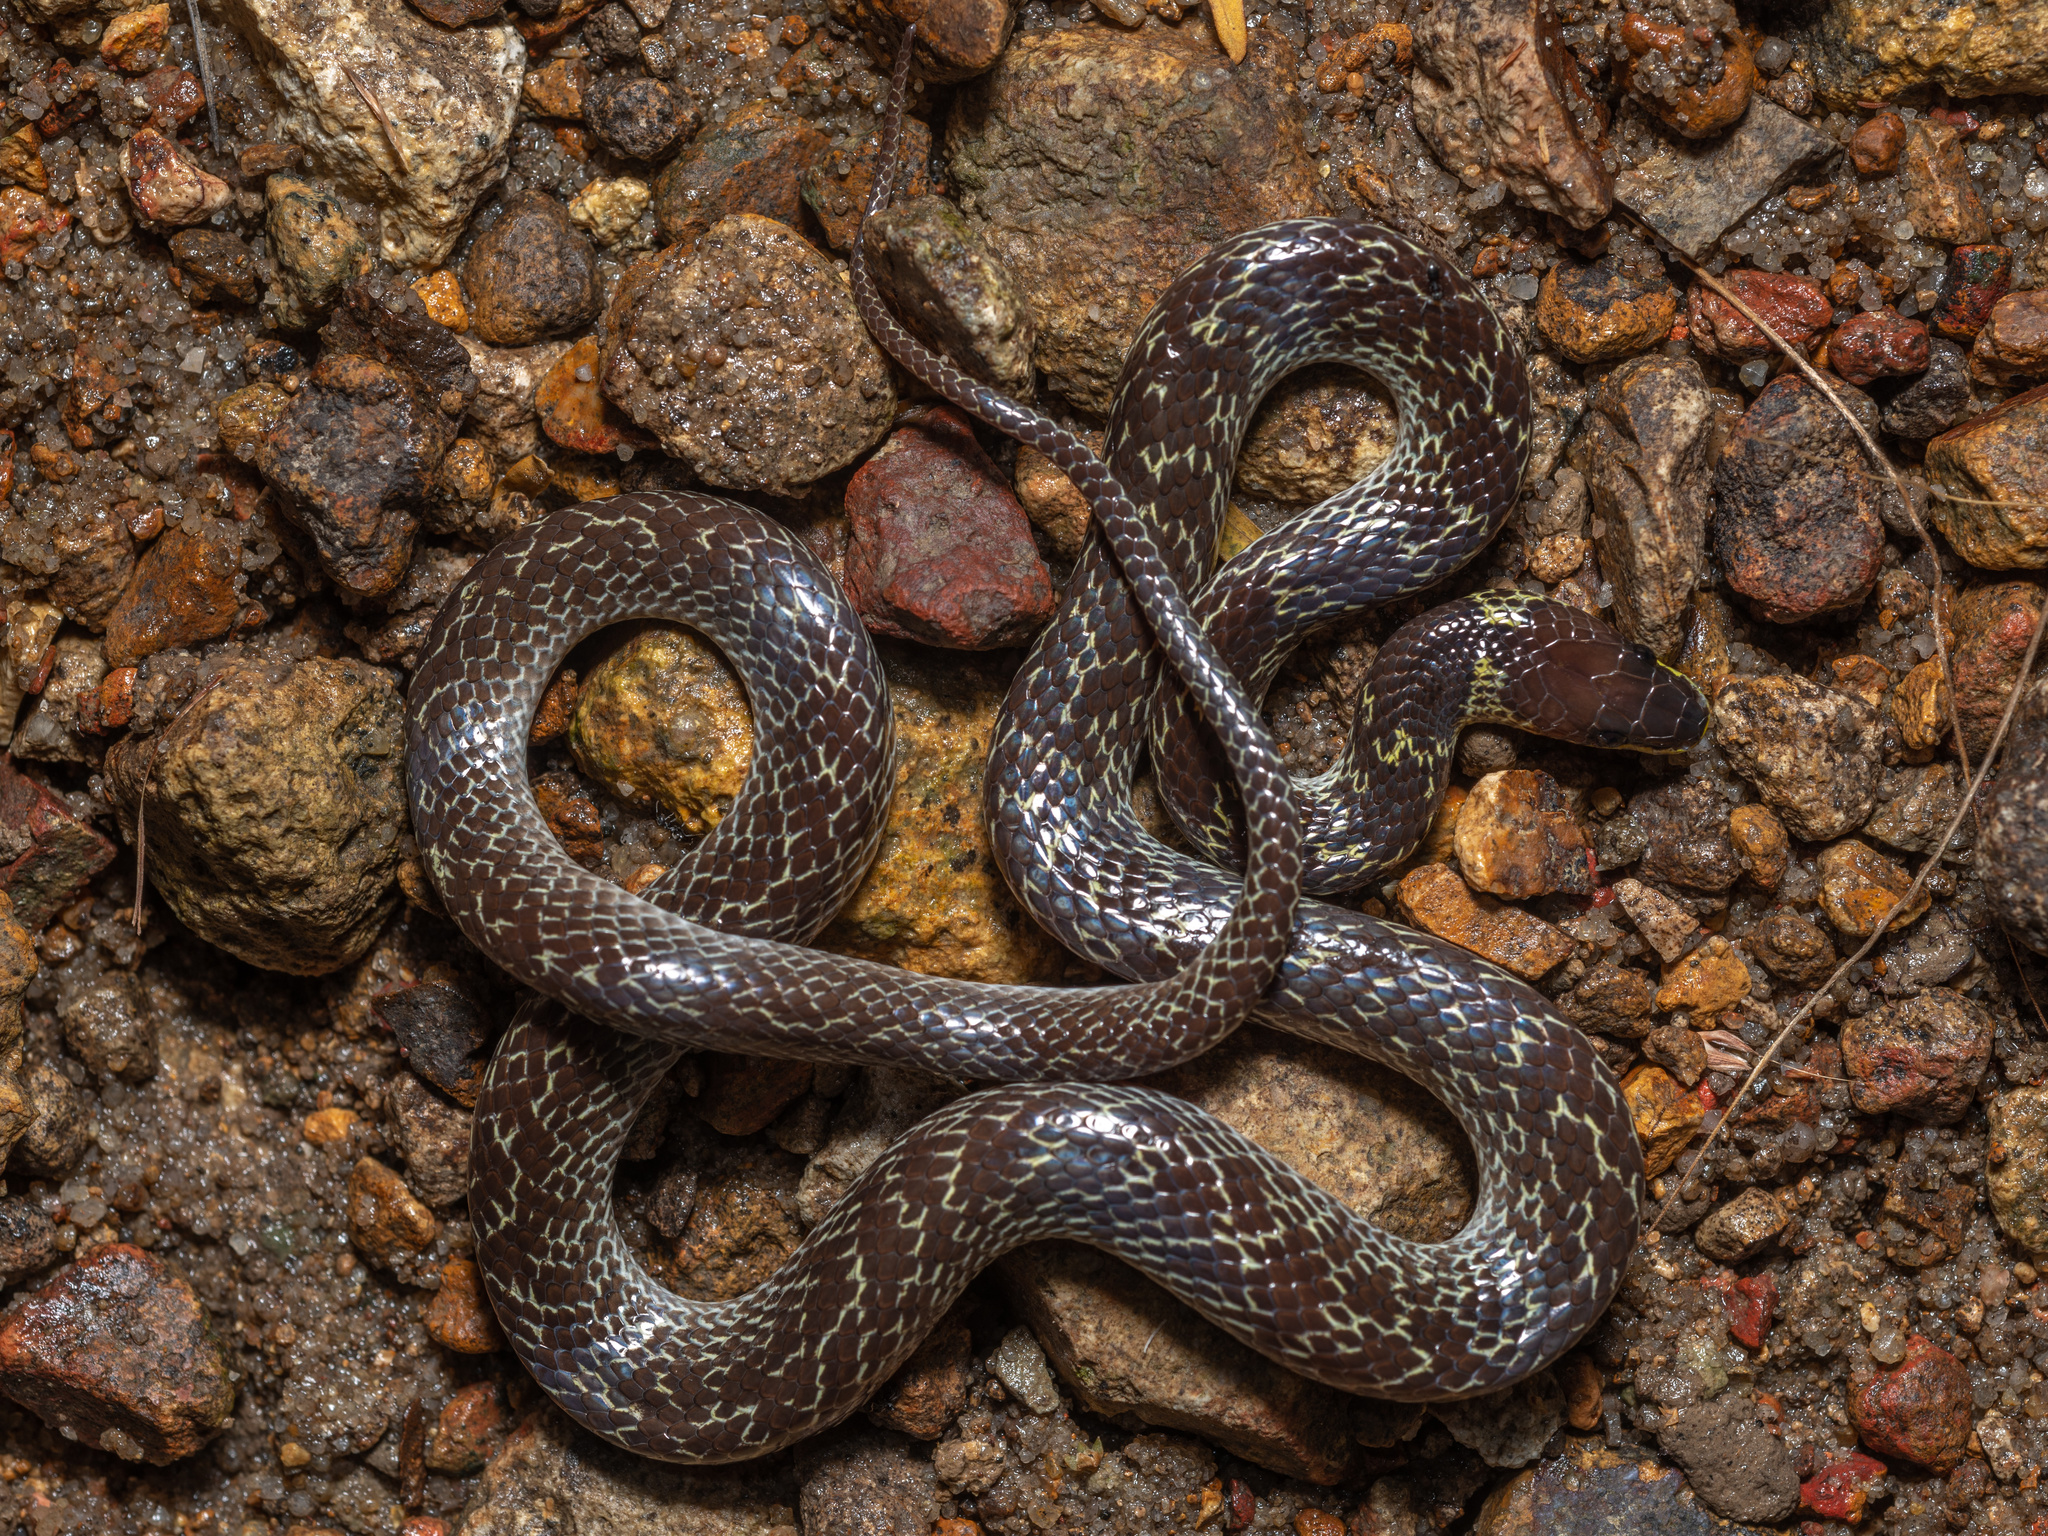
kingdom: Animalia
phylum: Chordata
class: Squamata
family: Colubridae
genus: Lycodon
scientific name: Lycodon capucinus
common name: Common wold snake/house snake
